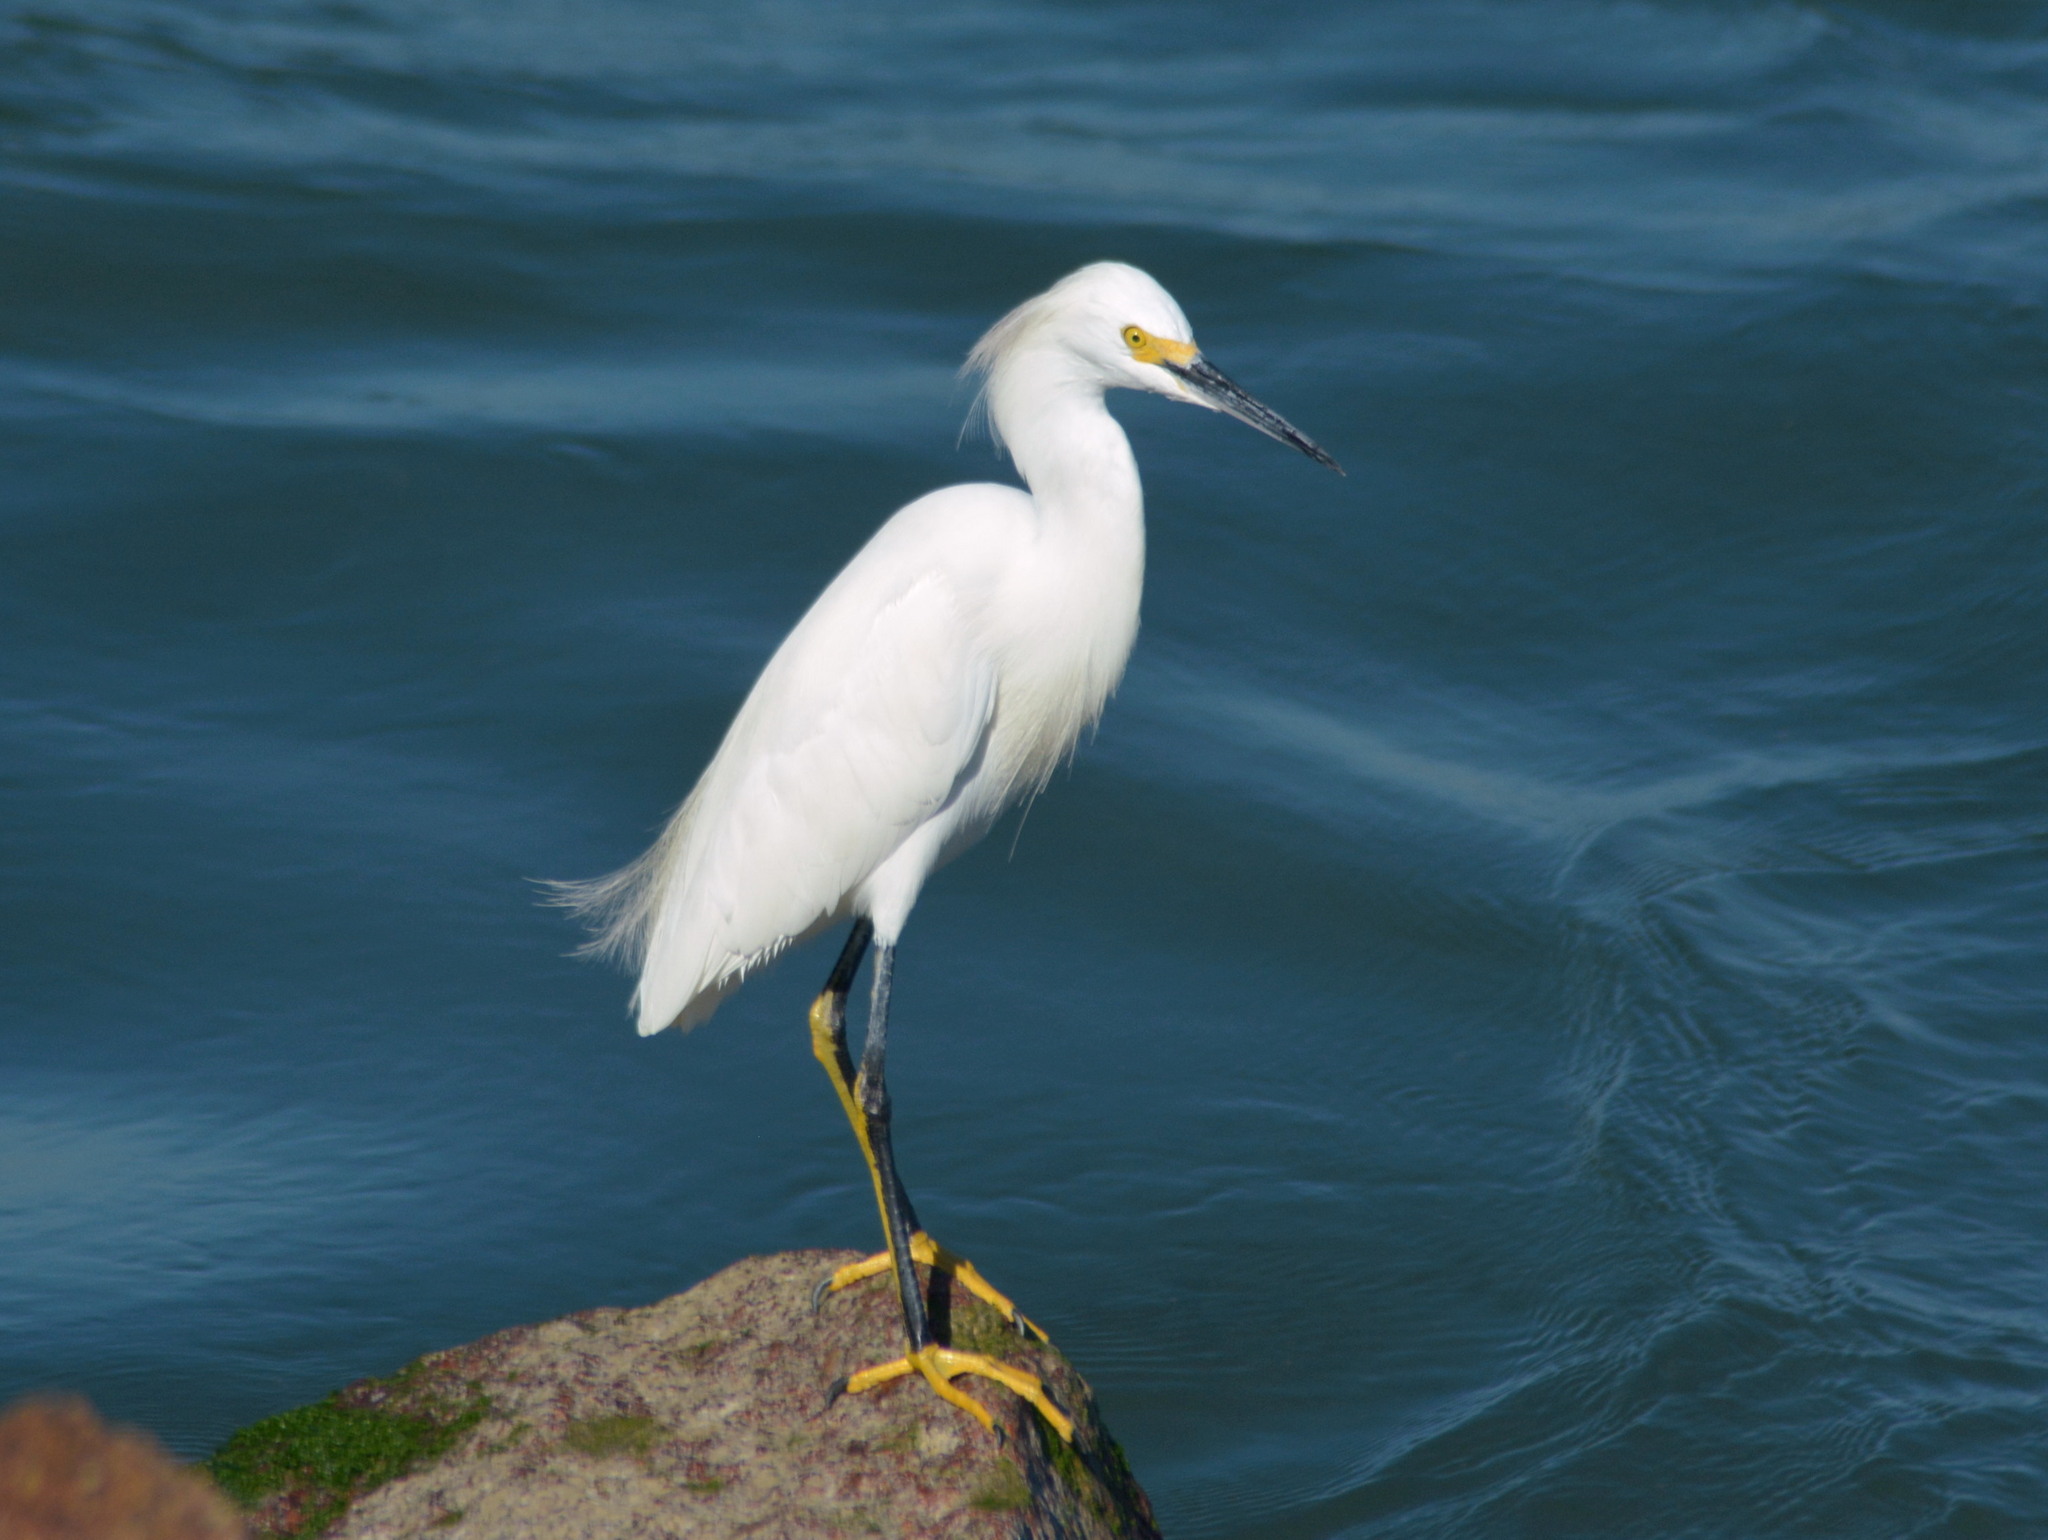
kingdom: Animalia
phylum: Chordata
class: Aves
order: Pelecaniformes
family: Ardeidae
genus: Egretta
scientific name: Egretta thula
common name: Snowy egret
